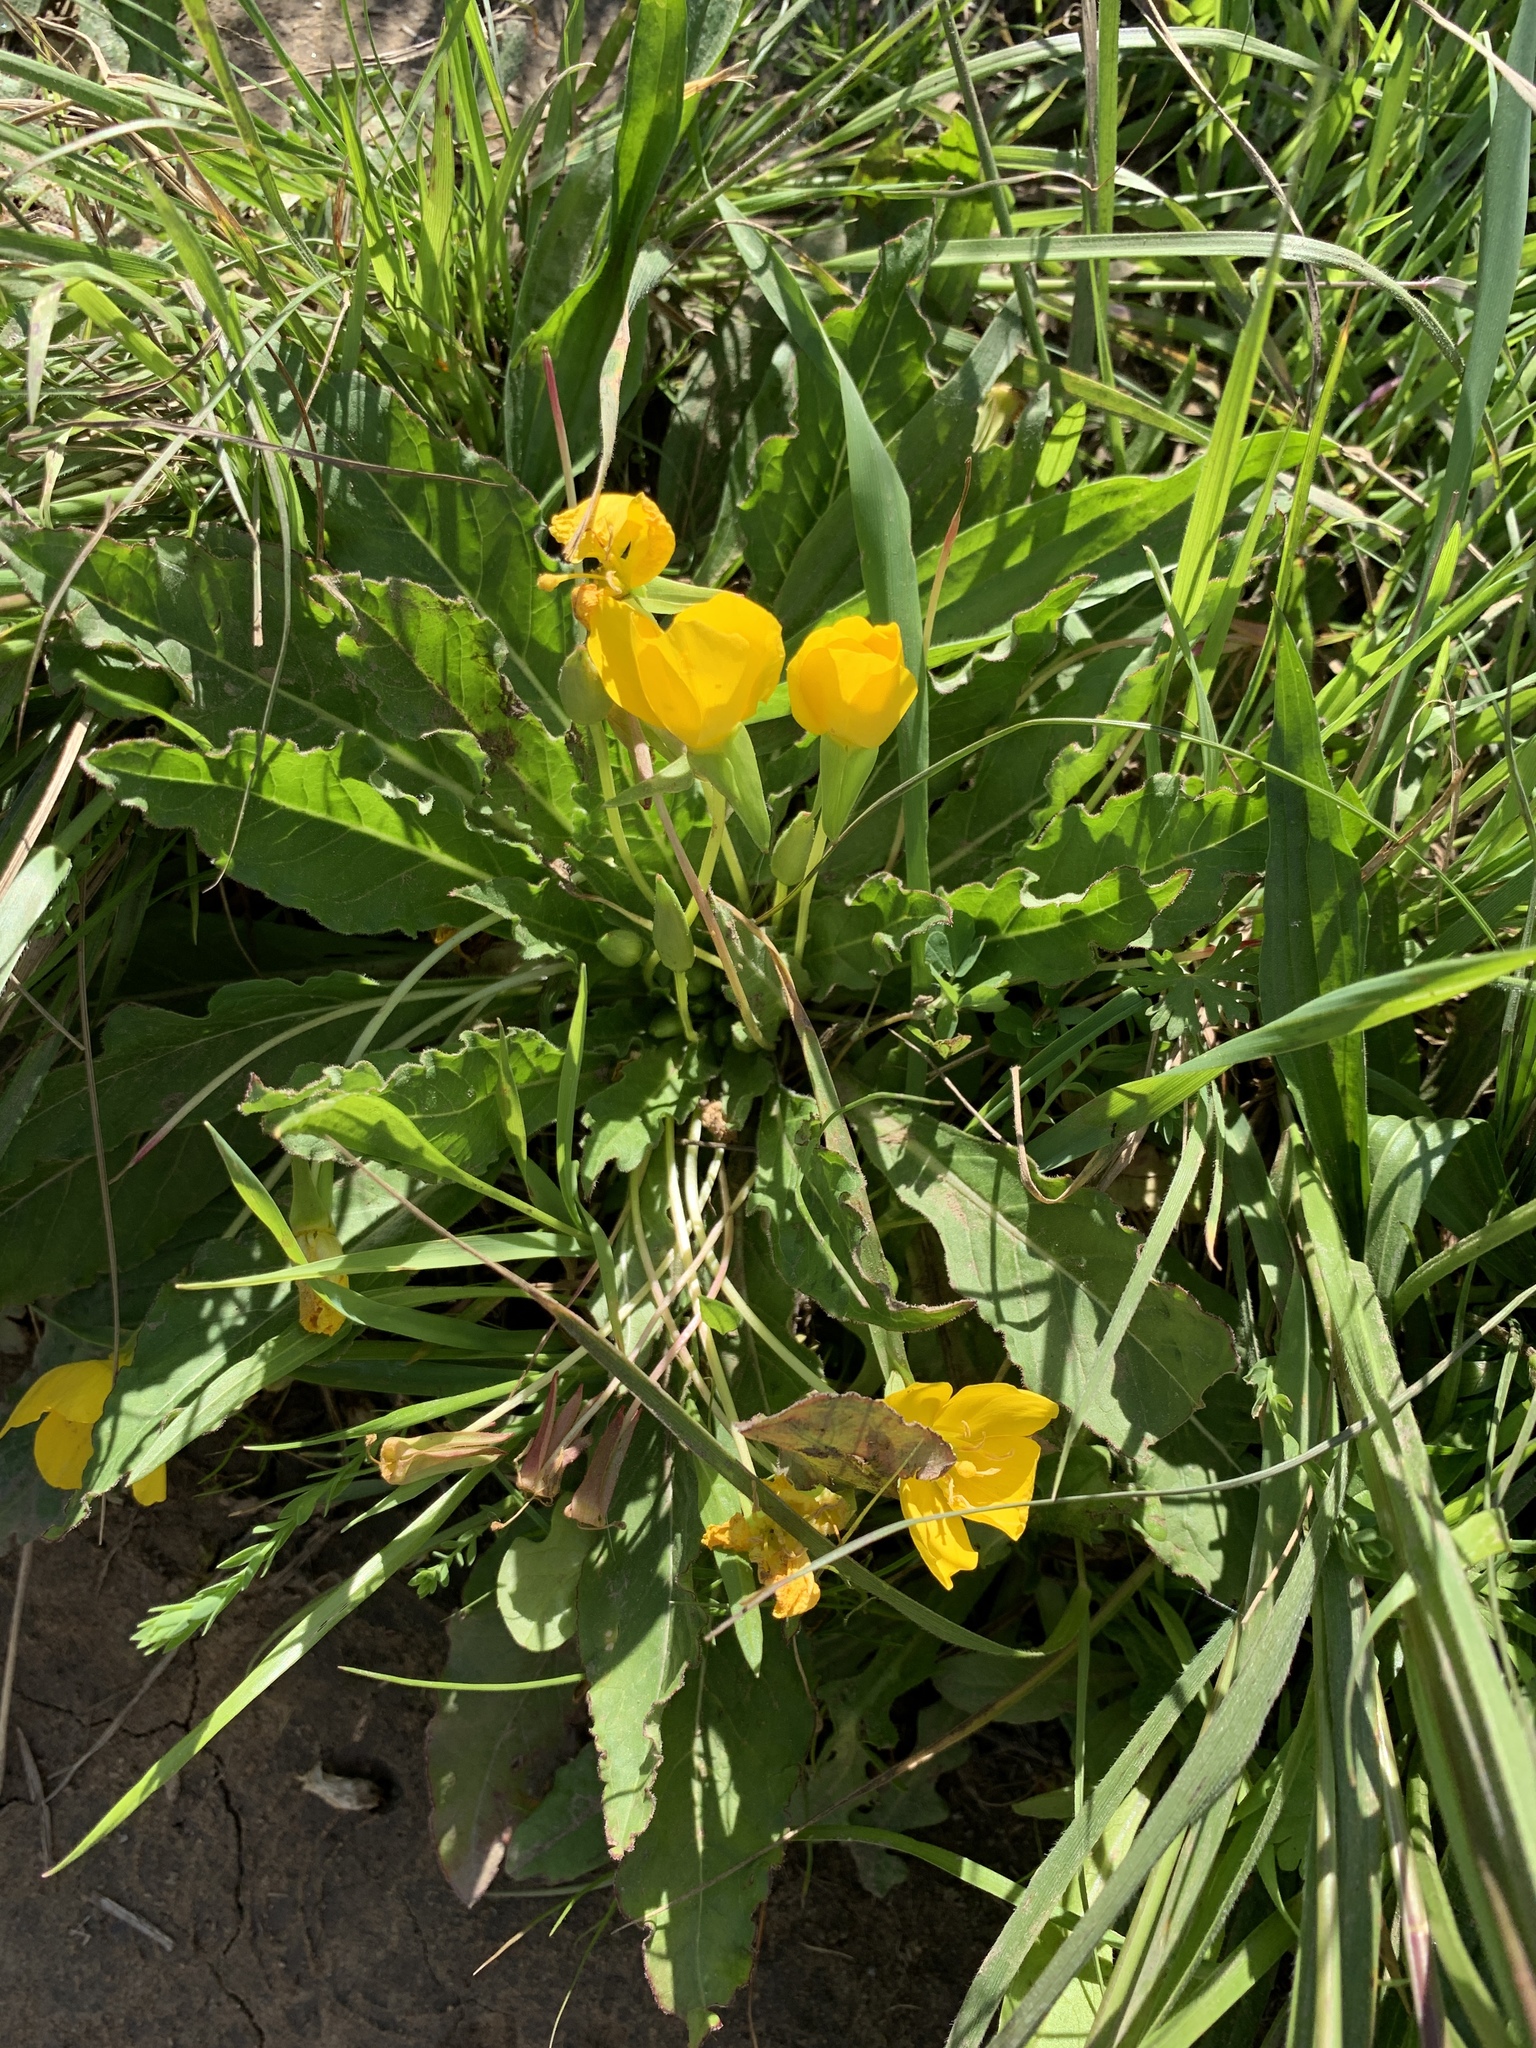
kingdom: Plantae
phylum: Tracheophyta
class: Magnoliopsida
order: Myrtales
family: Onagraceae
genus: Taraxia
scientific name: Taraxia ovata
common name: Goldeneggs
